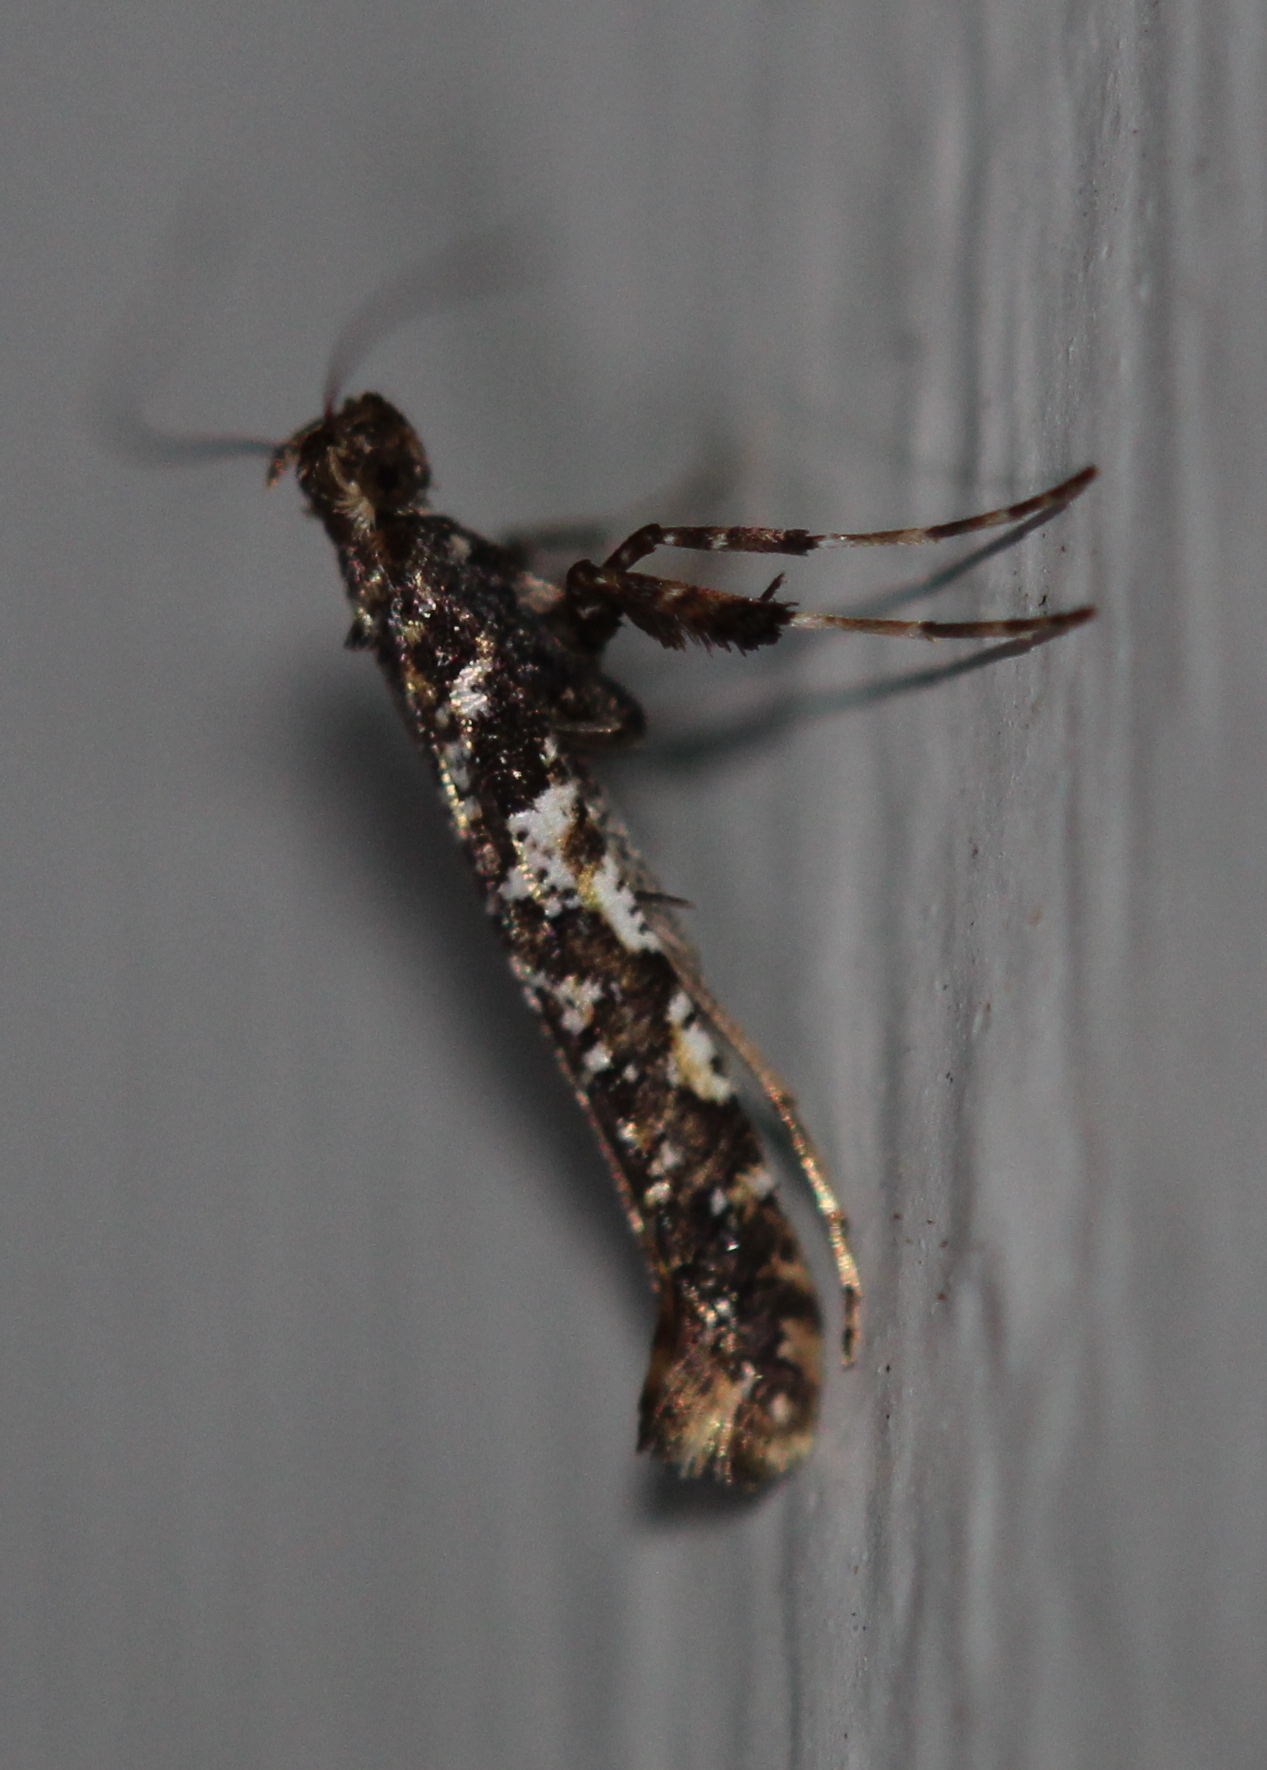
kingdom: Animalia
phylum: Arthropoda
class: Insecta
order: Lepidoptera
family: Gracillariidae
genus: Caloptilia
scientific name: Caloptilia serotinella
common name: Cherry leafroller moth
